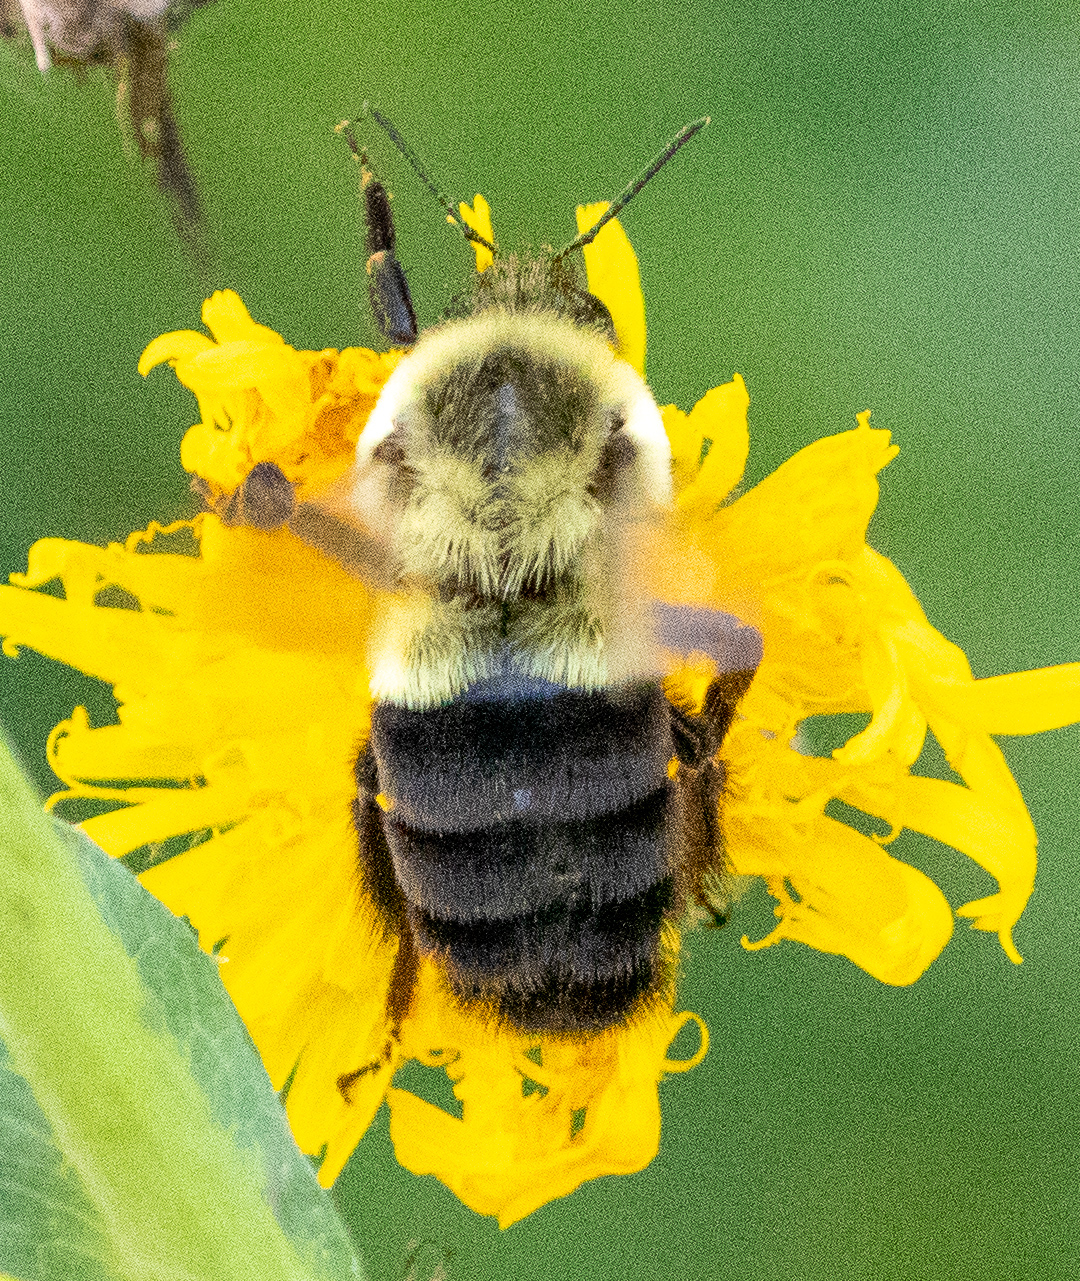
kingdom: Animalia
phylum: Arthropoda
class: Insecta
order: Hymenoptera
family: Apidae
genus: Bombus
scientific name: Bombus impatiens
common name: Common eastern bumble bee
